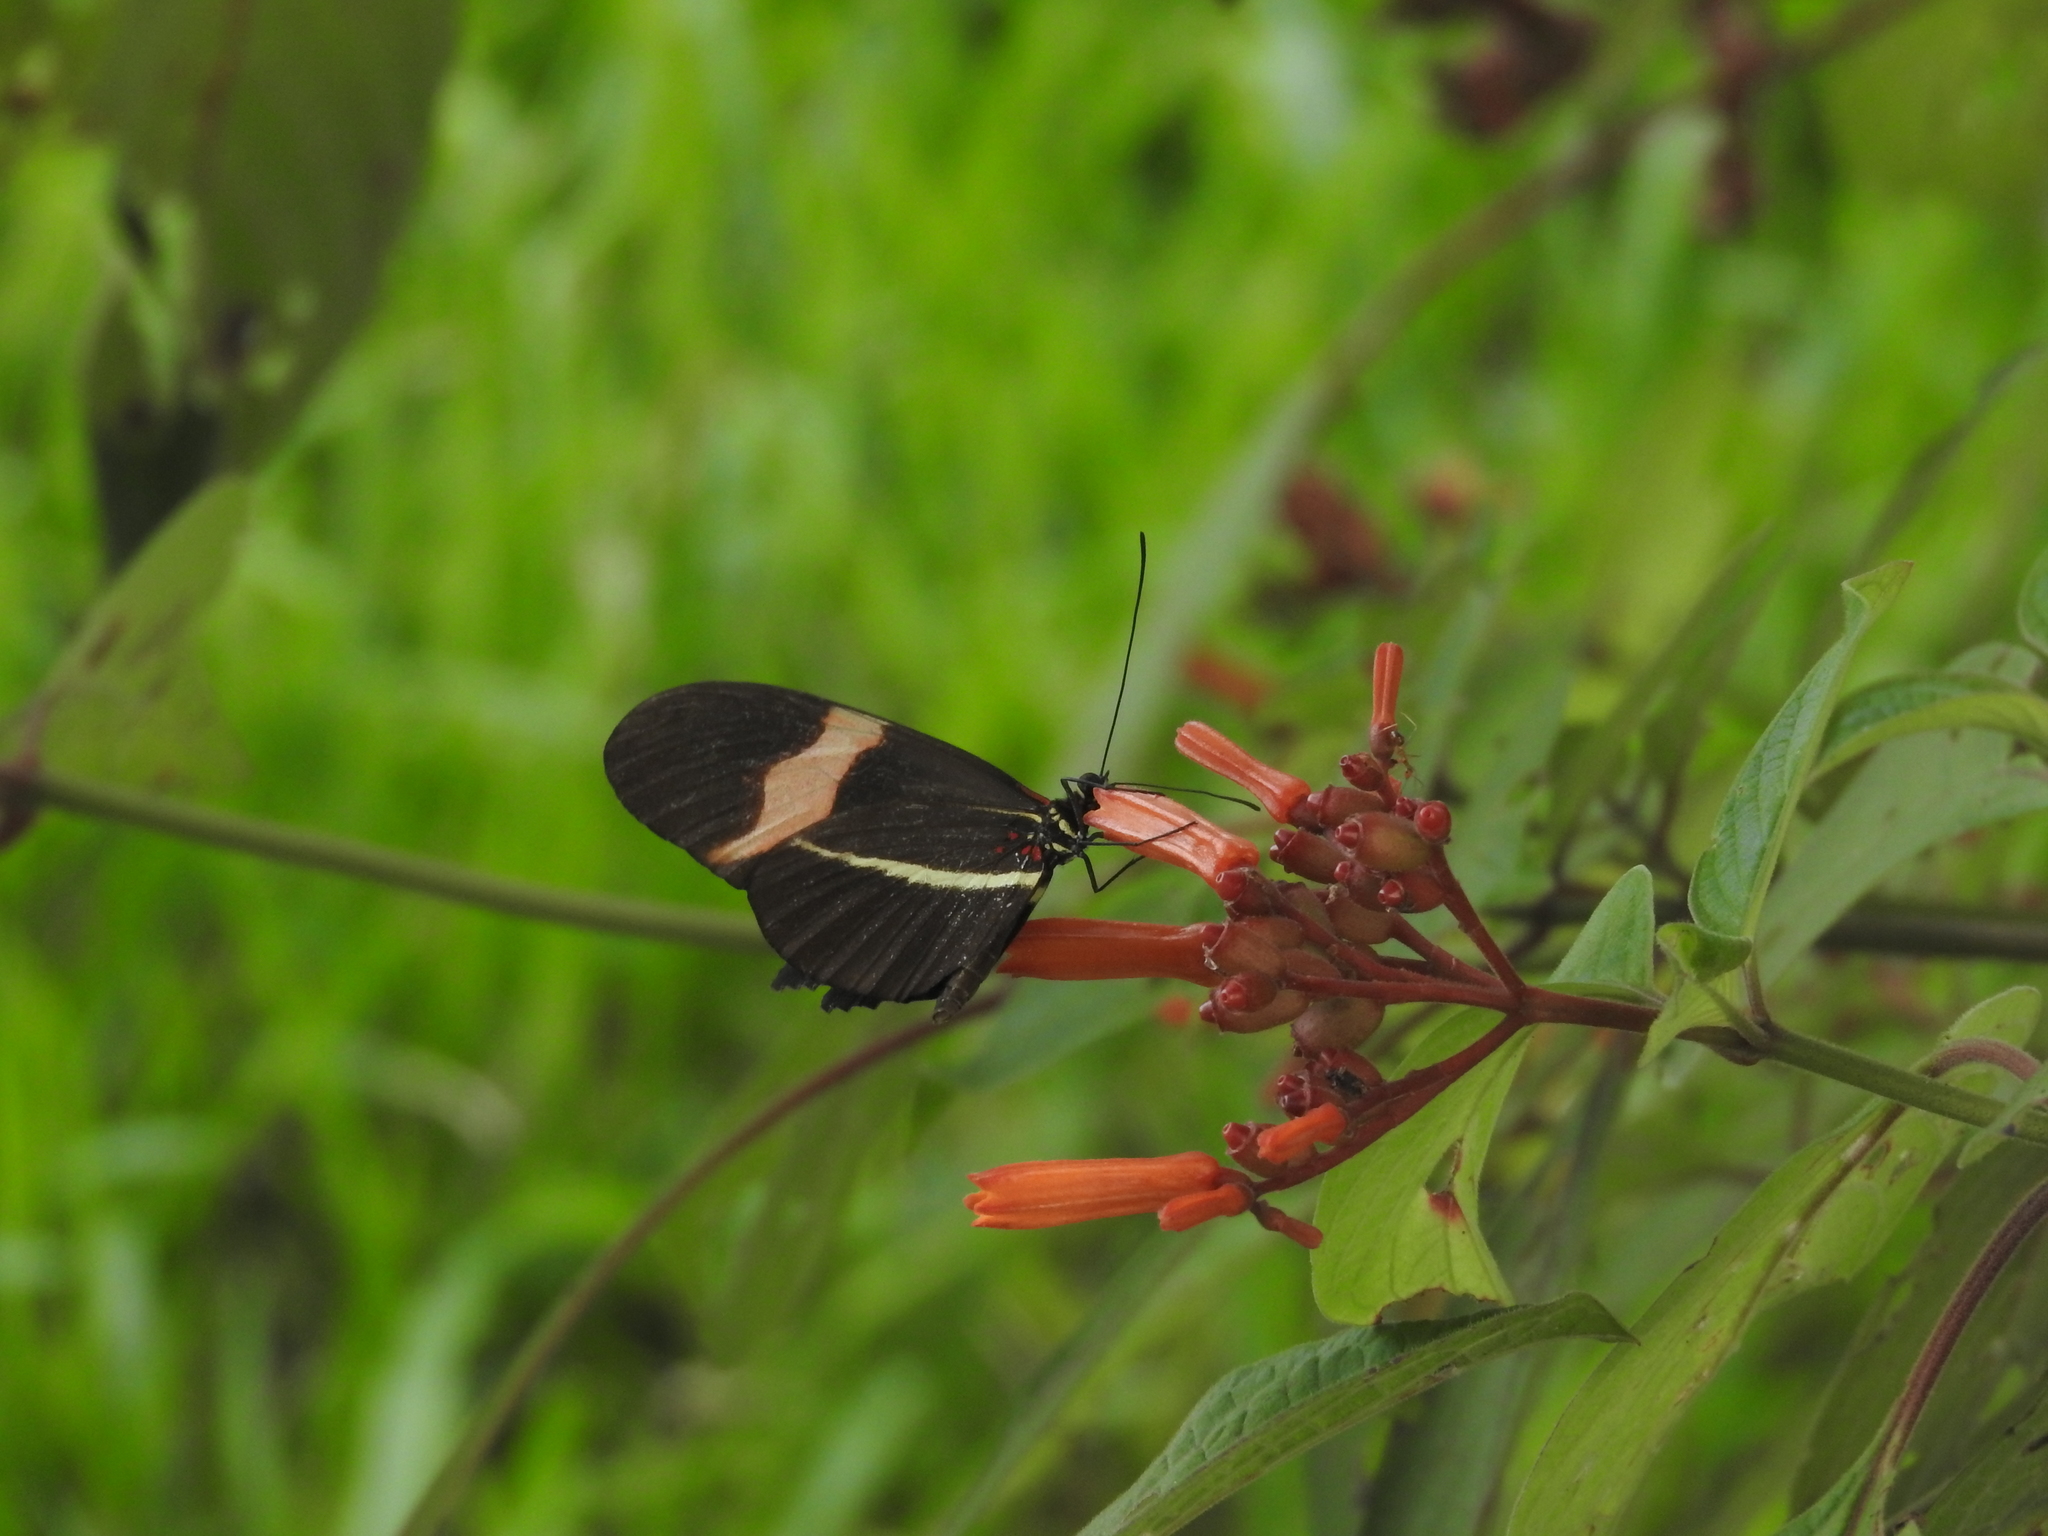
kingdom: Animalia
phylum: Arthropoda
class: Insecta
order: Lepidoptera
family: Nymphalidae
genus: Tirumala
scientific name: Tirumala petiverana
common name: Blue monarch
